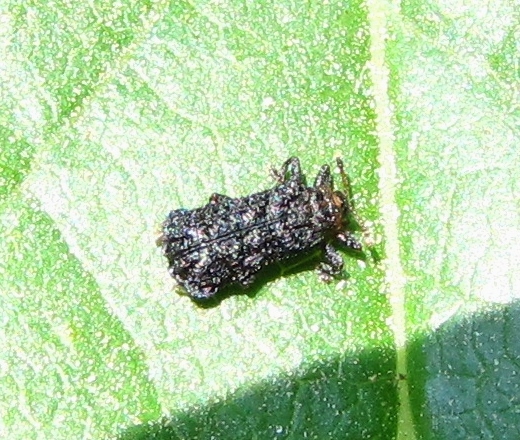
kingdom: Animalia
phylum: Arthropoda
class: Insecta
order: Coleoptera
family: Chrysomelidae
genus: Octotoma
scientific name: Octotoma plicatula
